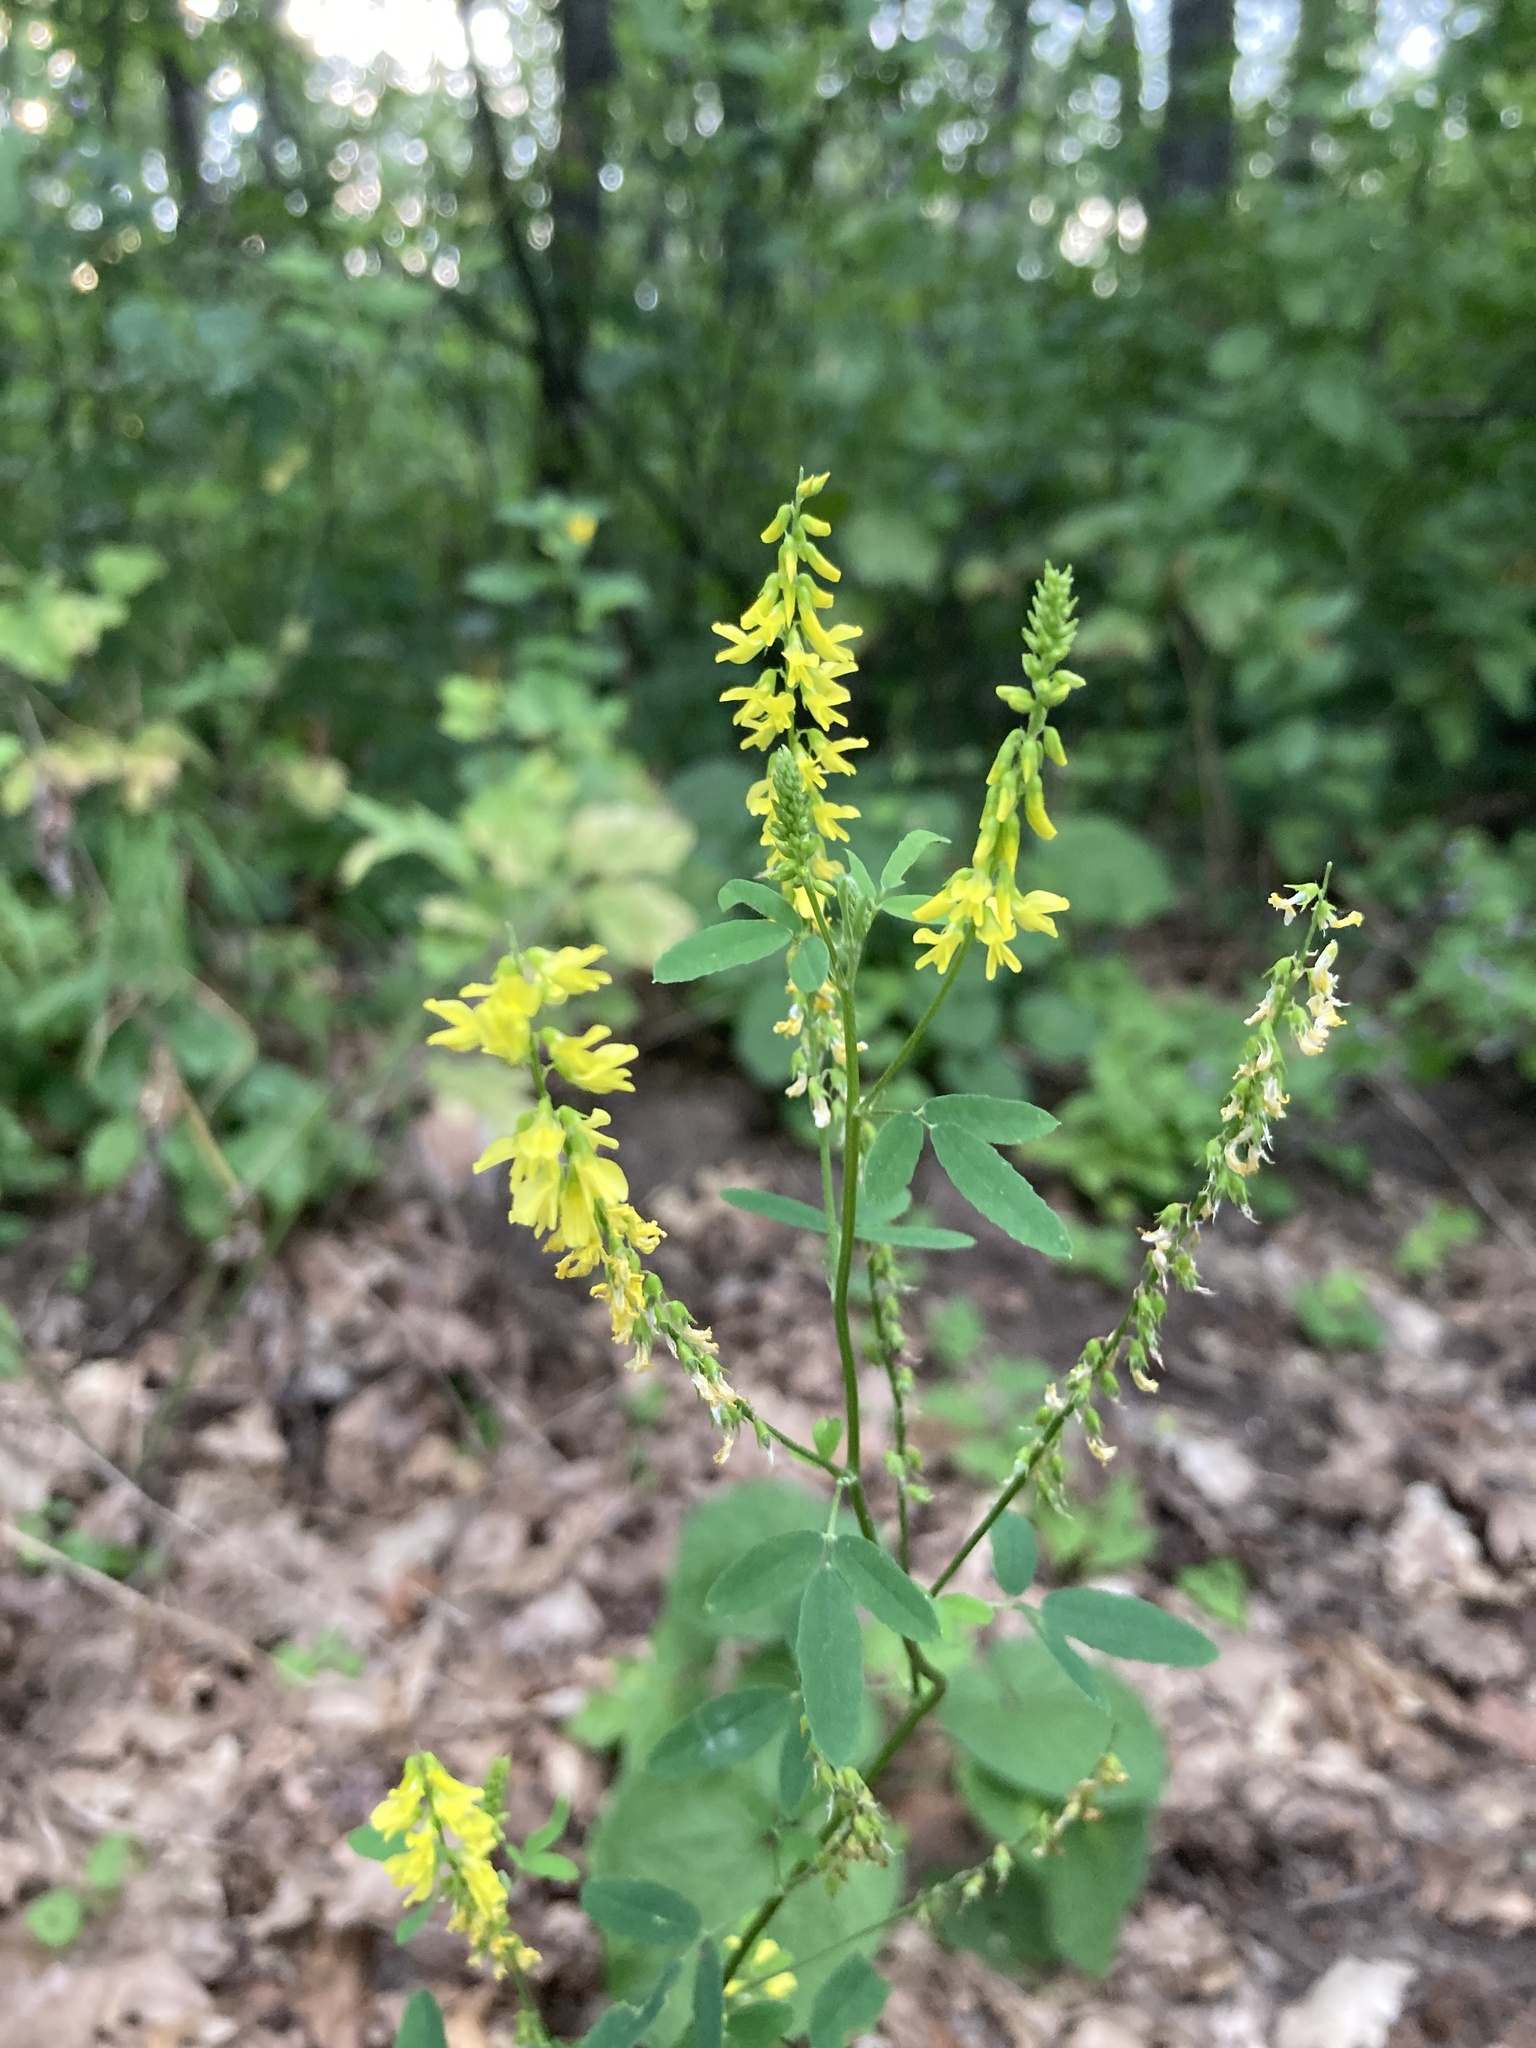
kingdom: Plantae
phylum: Tracheophyta
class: Magnoliopsida
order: Fabales
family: Fabaceae
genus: Melilotus
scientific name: Melilotus officinalis
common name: Sweetclover
